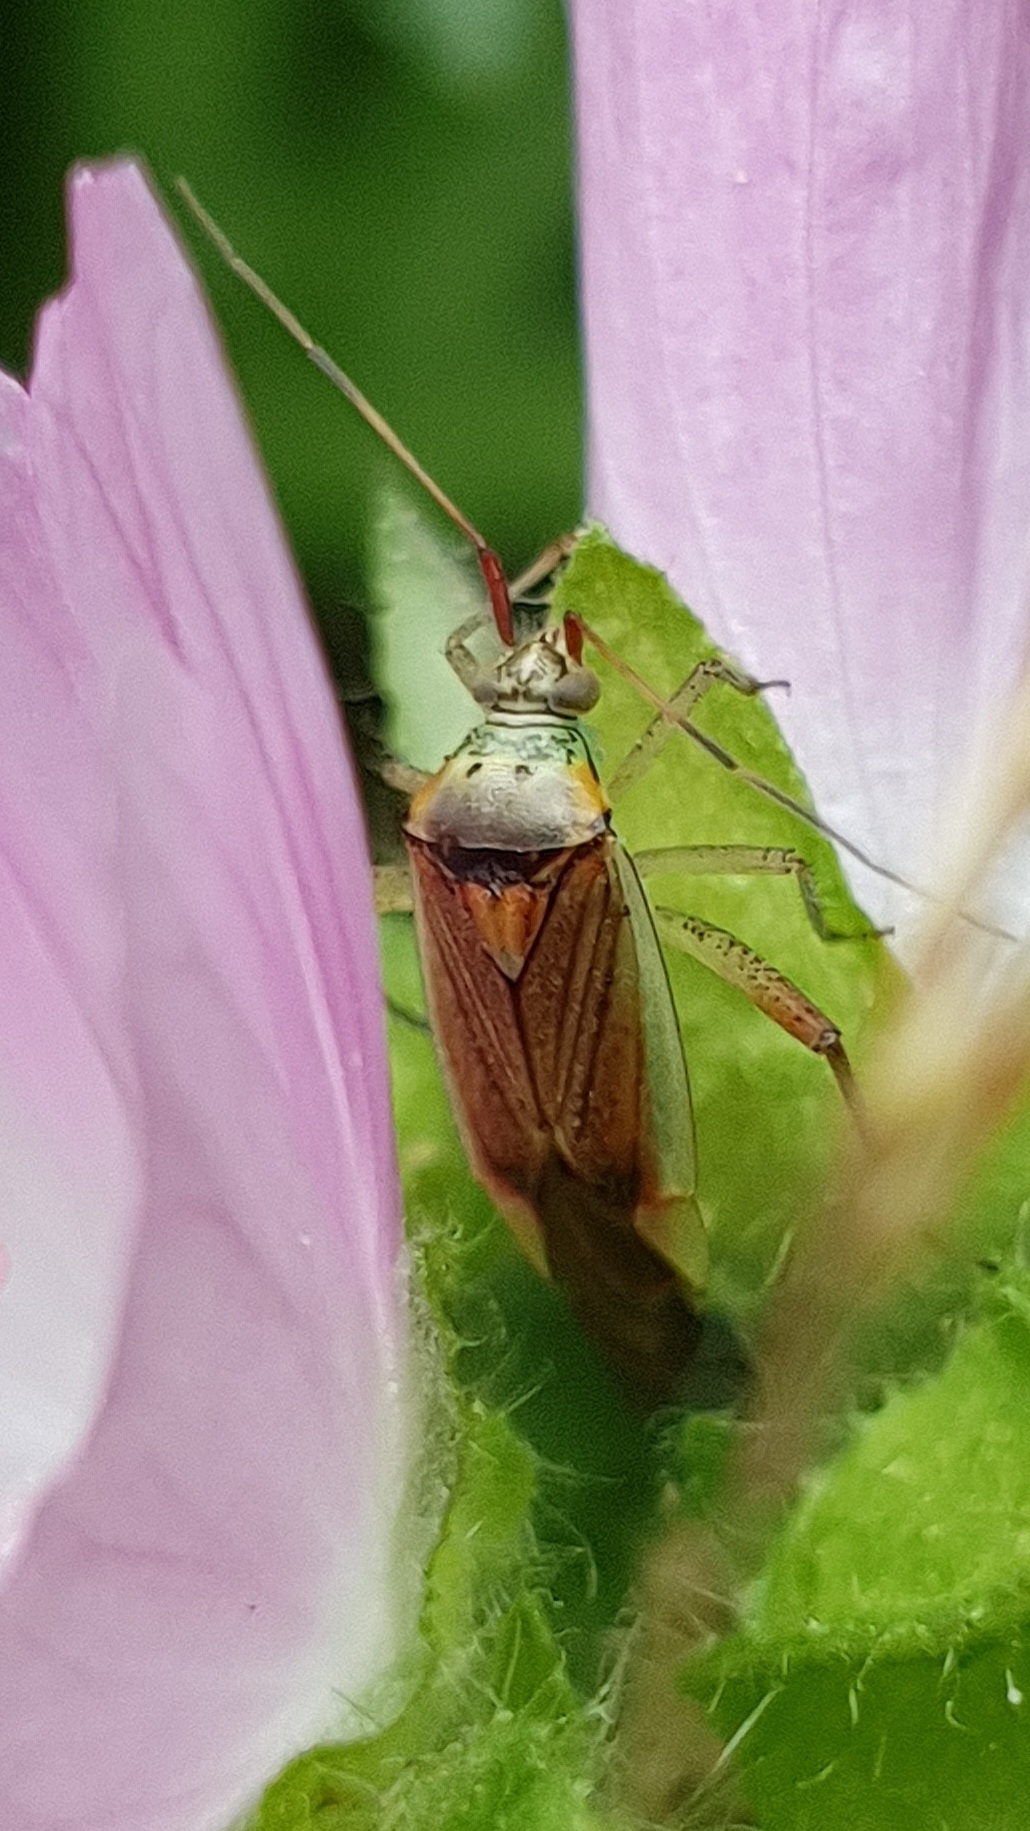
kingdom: Animalia
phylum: Arthropoda
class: Insecta
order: Hemiptera
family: Miridae
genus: Closterotomus
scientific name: Closterotomus trivialis
